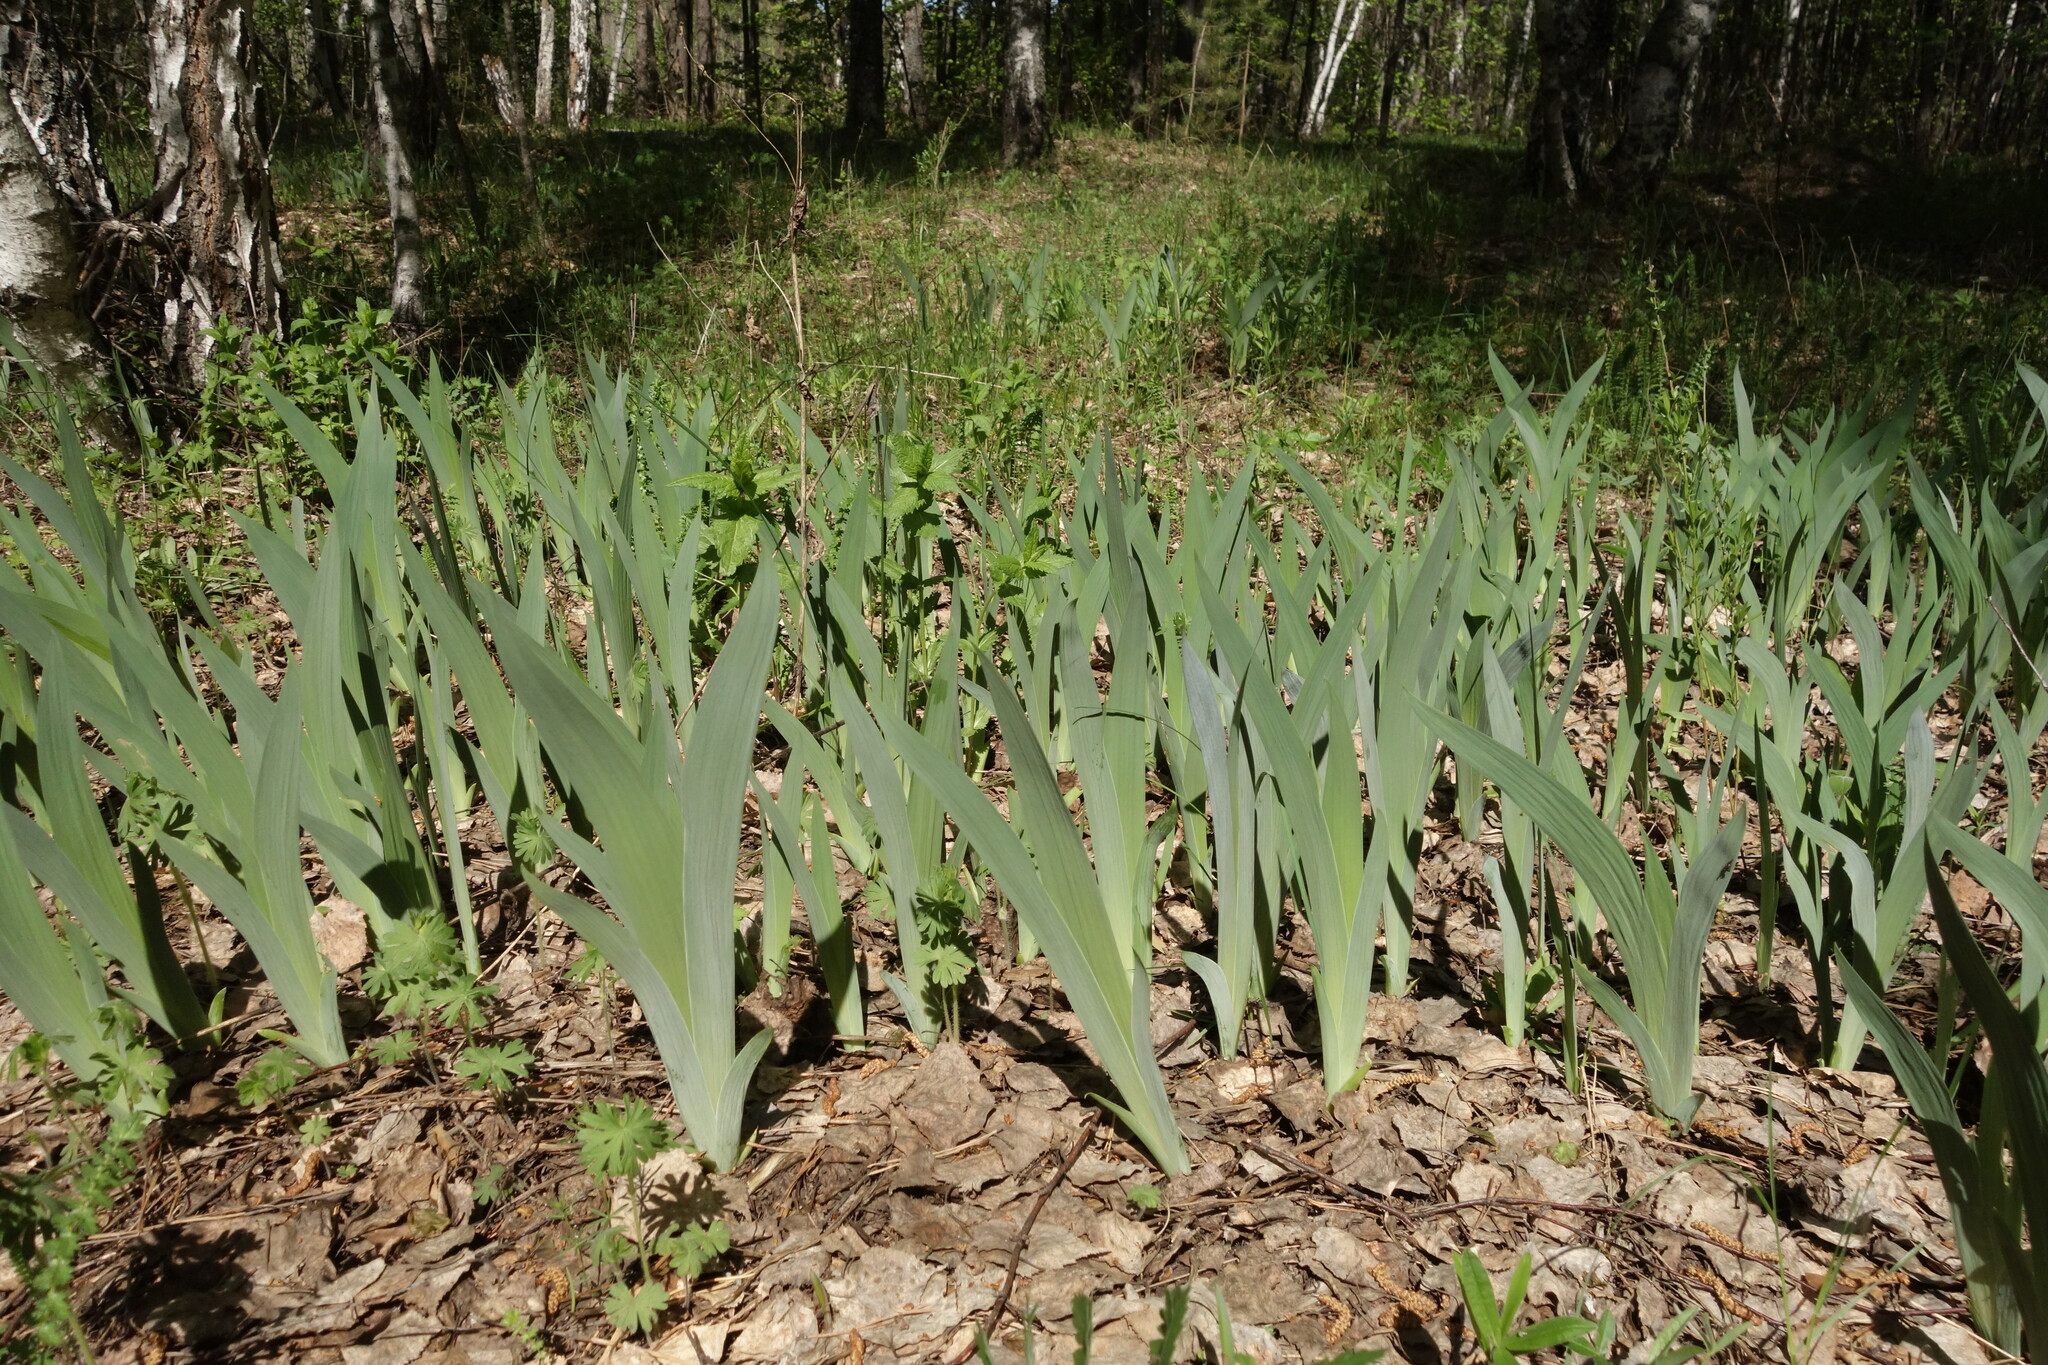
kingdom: Plantae
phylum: Tracheophyta
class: Liliopsida
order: Asparagales
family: Iridaceae
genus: Iris
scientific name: Iris aphylla
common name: Stool iris
